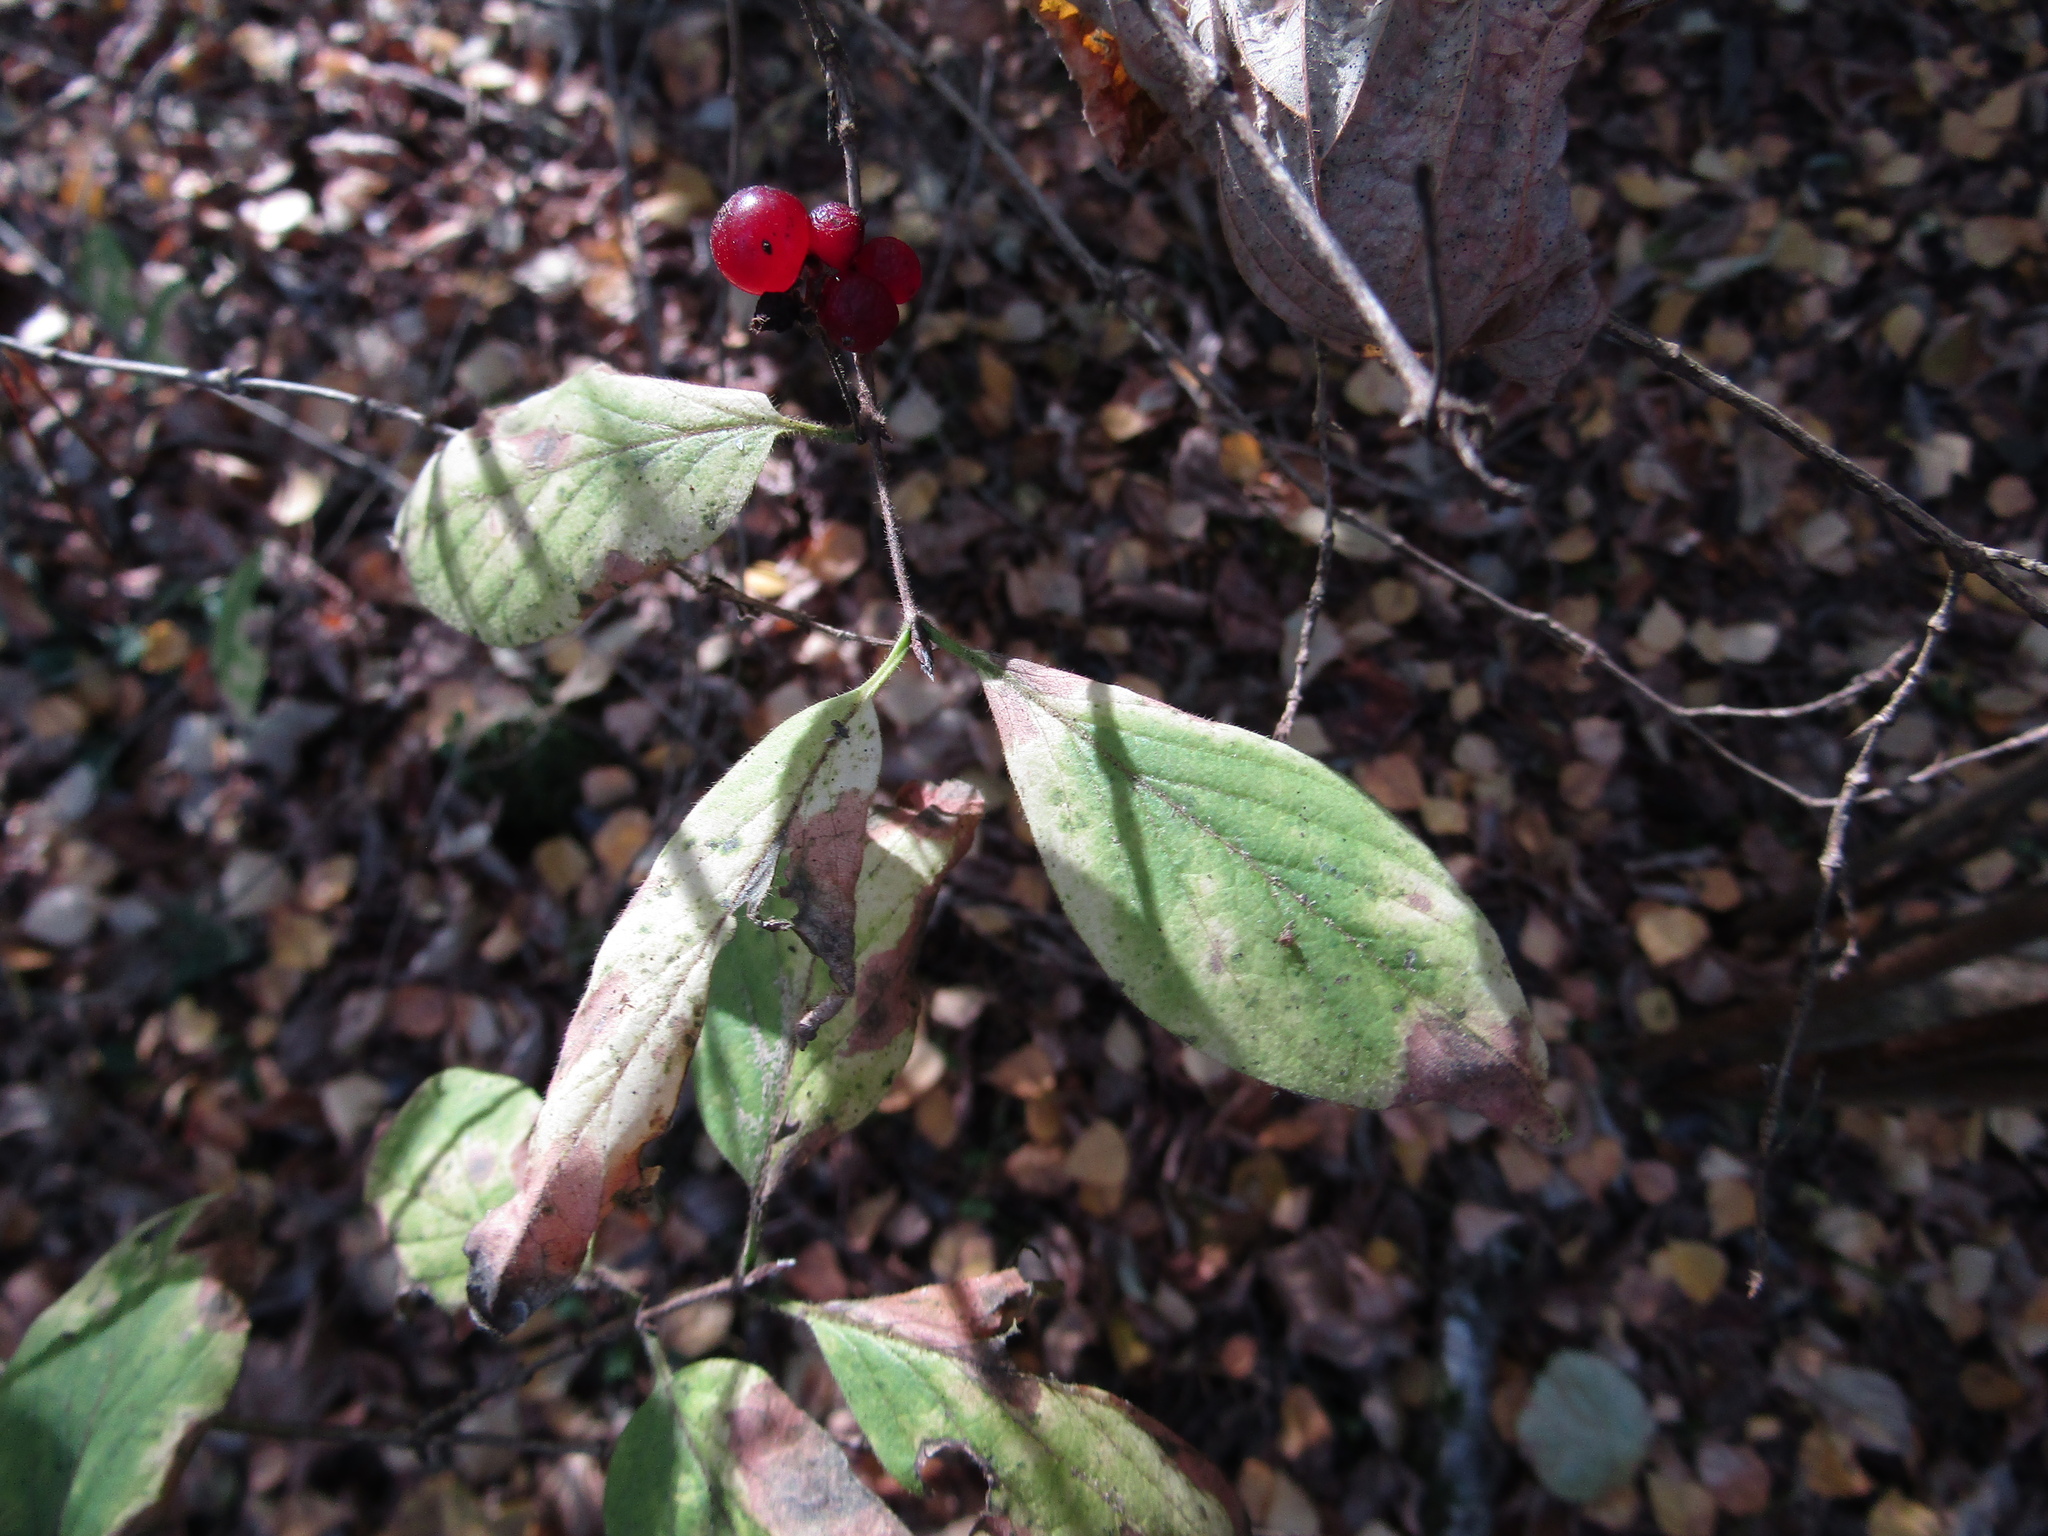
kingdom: Plantae
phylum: Tracheophyta
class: Magnoliopsida
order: Dipsacales
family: Caprifoliaceae
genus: Lonicera
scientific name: Lonicera xylosteum
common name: Fly honeysuckle
